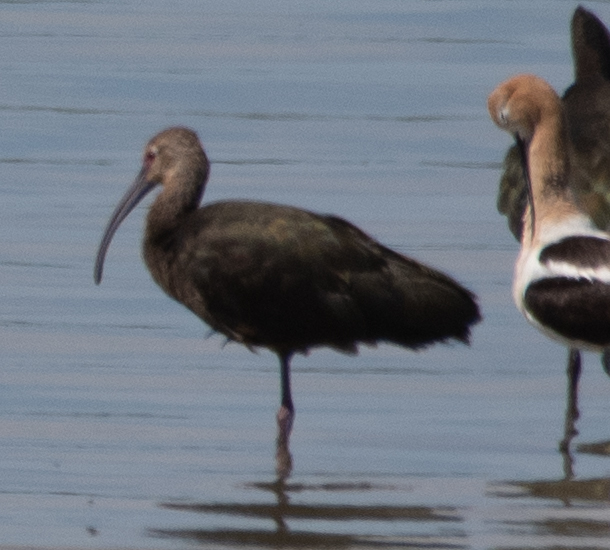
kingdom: Animalia
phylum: Chordata
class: Aves
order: Pelecaniformes
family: Threskiornithidae
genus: Plegadis
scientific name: Plegadis chihi
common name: White-faced ibis
